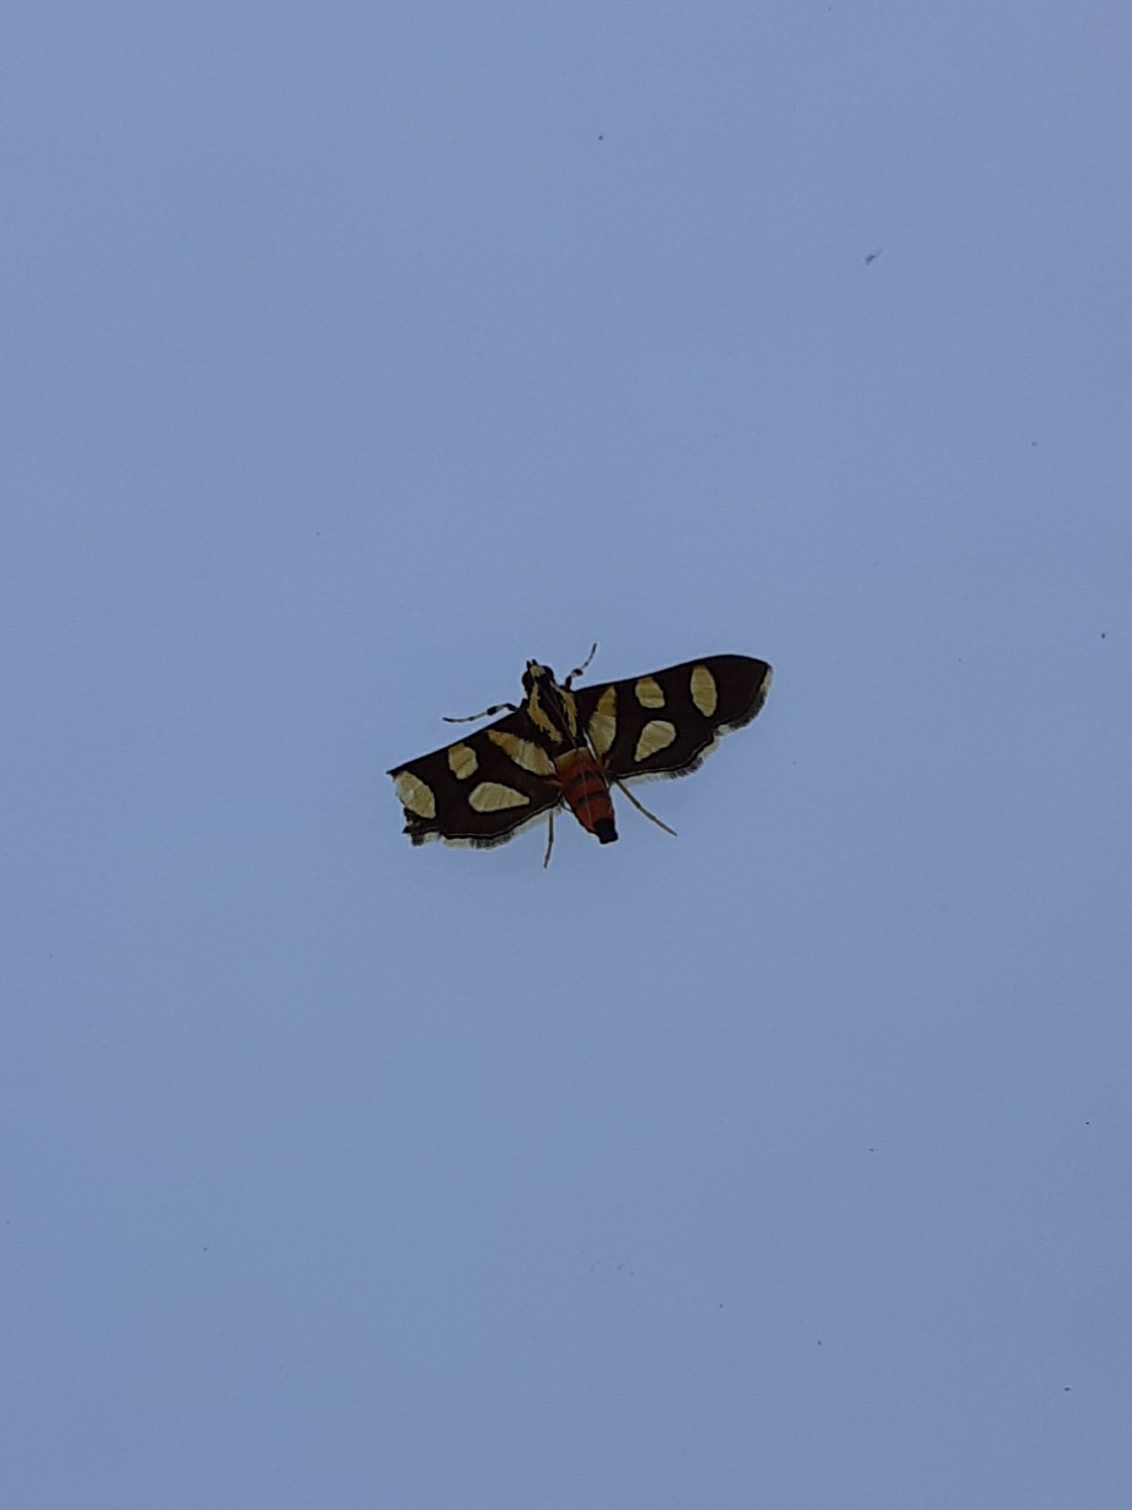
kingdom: Animalia
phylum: Arthropoda
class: Insecta
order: Lepidoptera
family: Crambidae
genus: Syngamia
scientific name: Syngamia florella
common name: Orange-spotted flower moth
